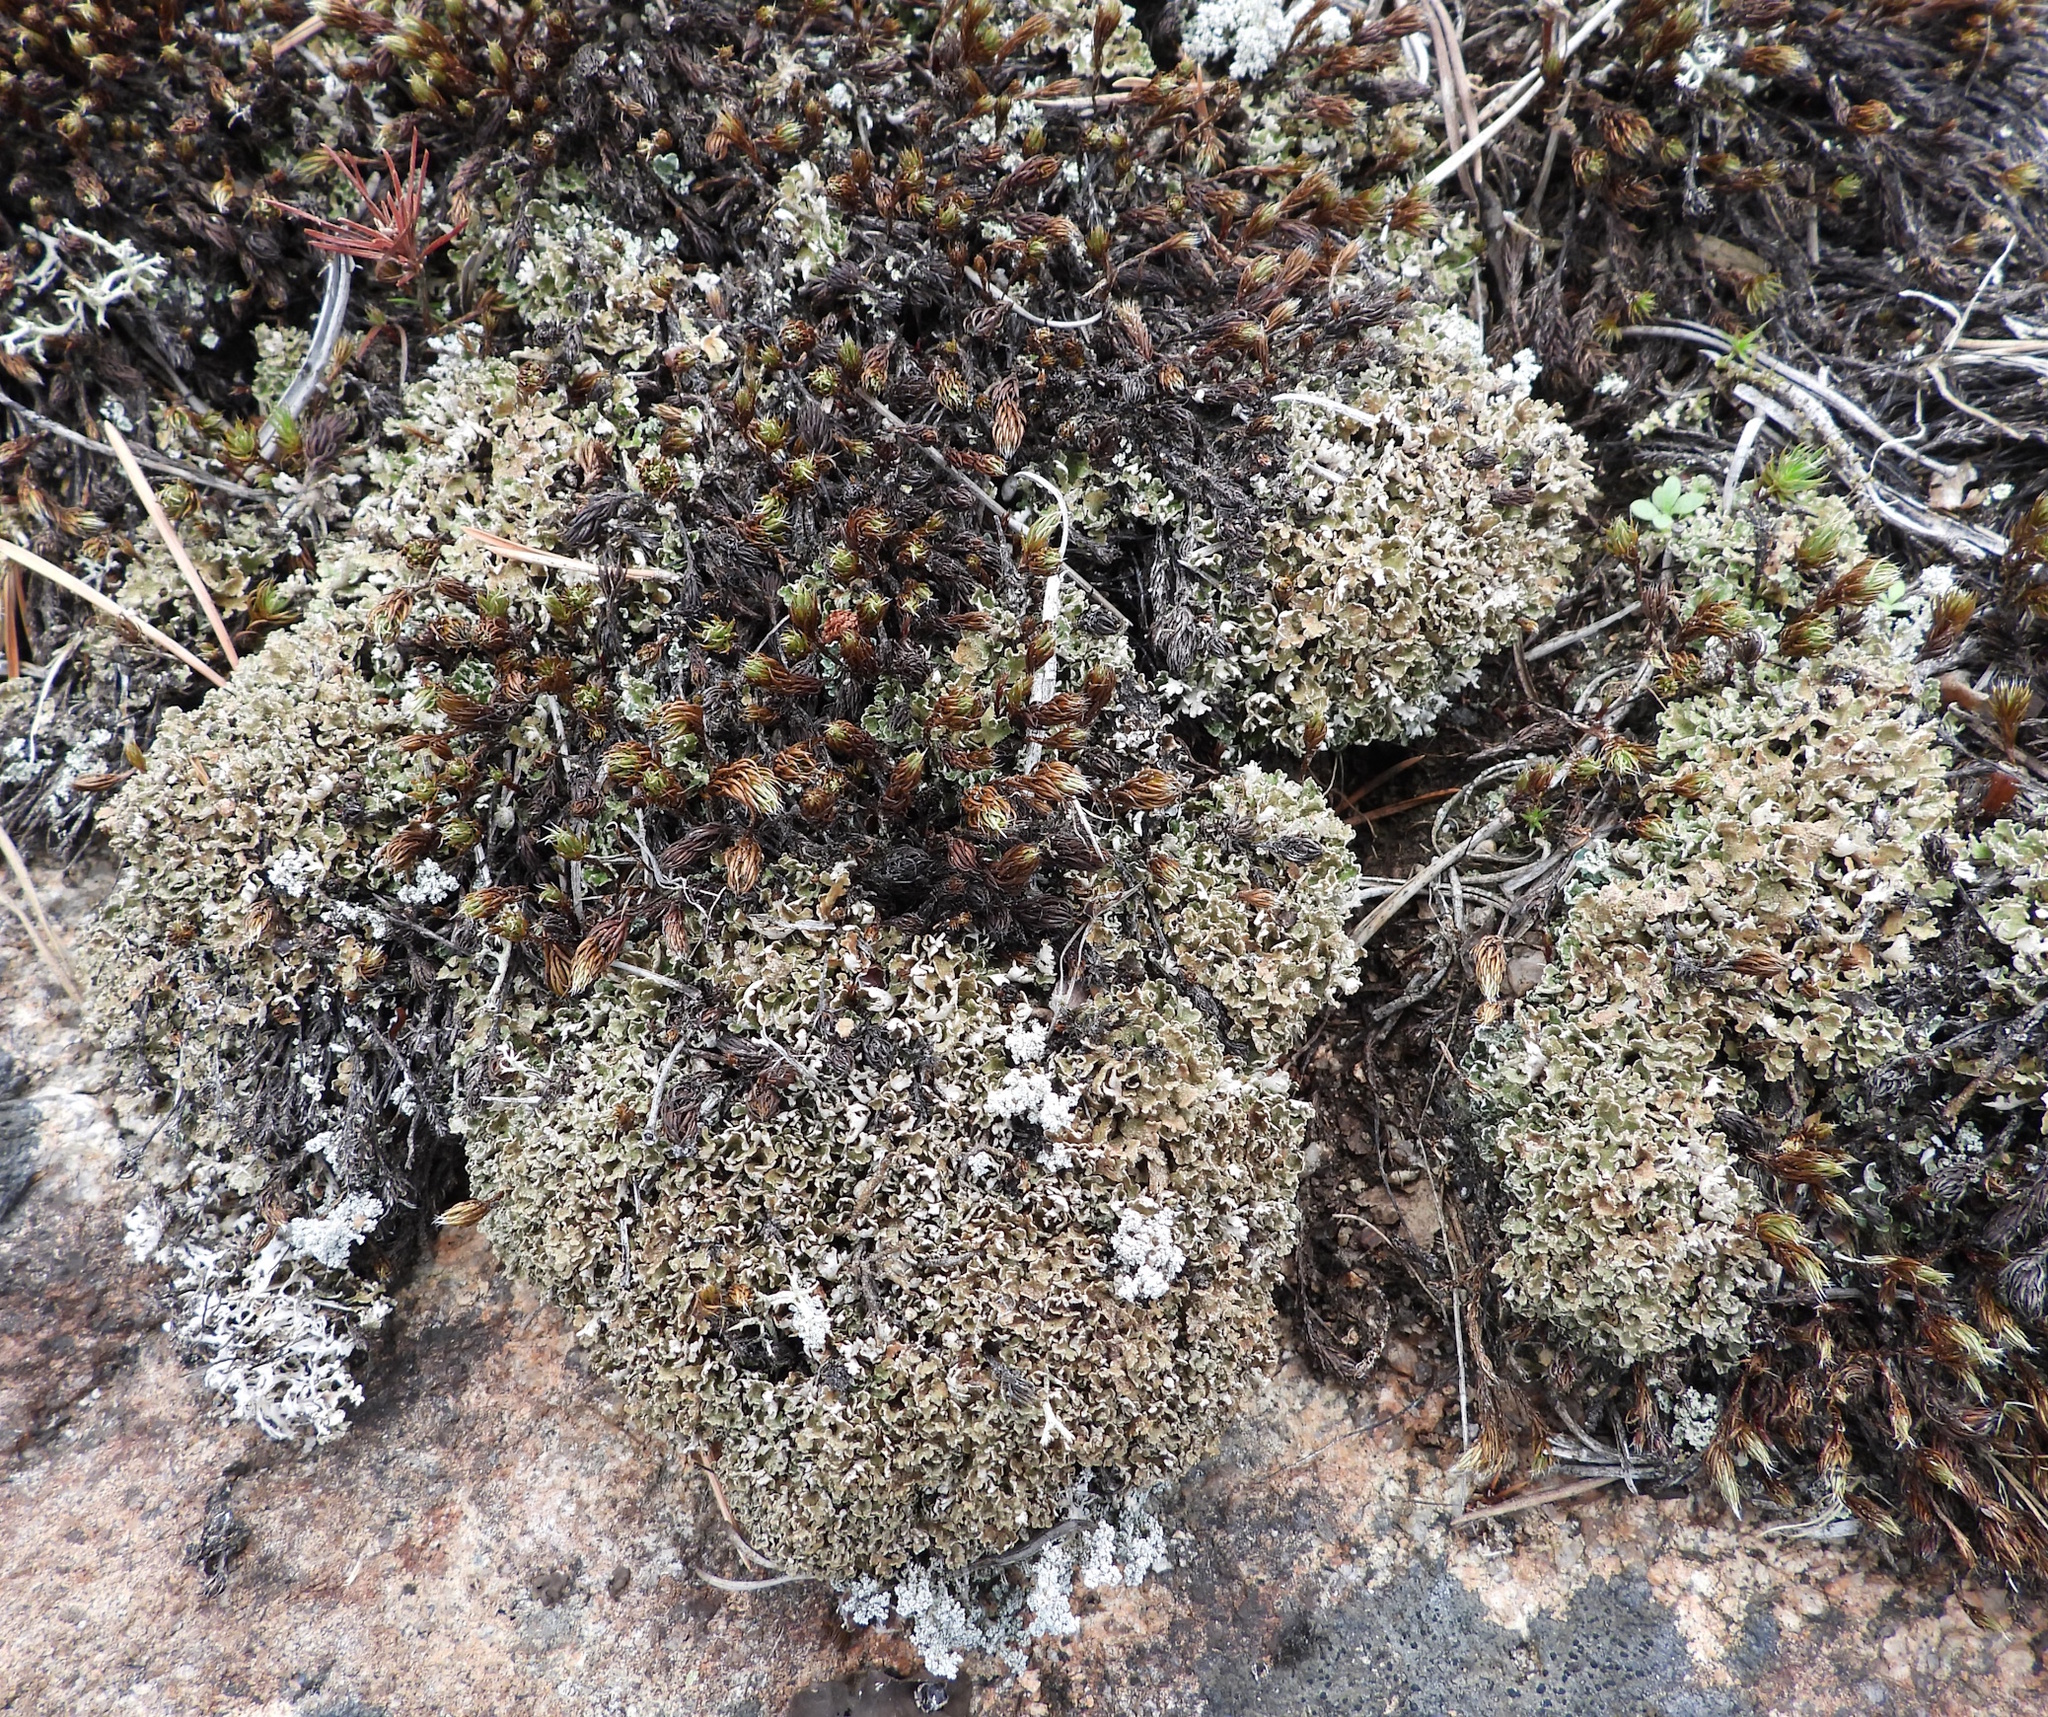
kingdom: Fungi
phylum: Ascomycota
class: Lecanoromycetes
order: Lecanorales
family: Cladoniaceae
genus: Cladonia
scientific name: Cladonia strepsilis
